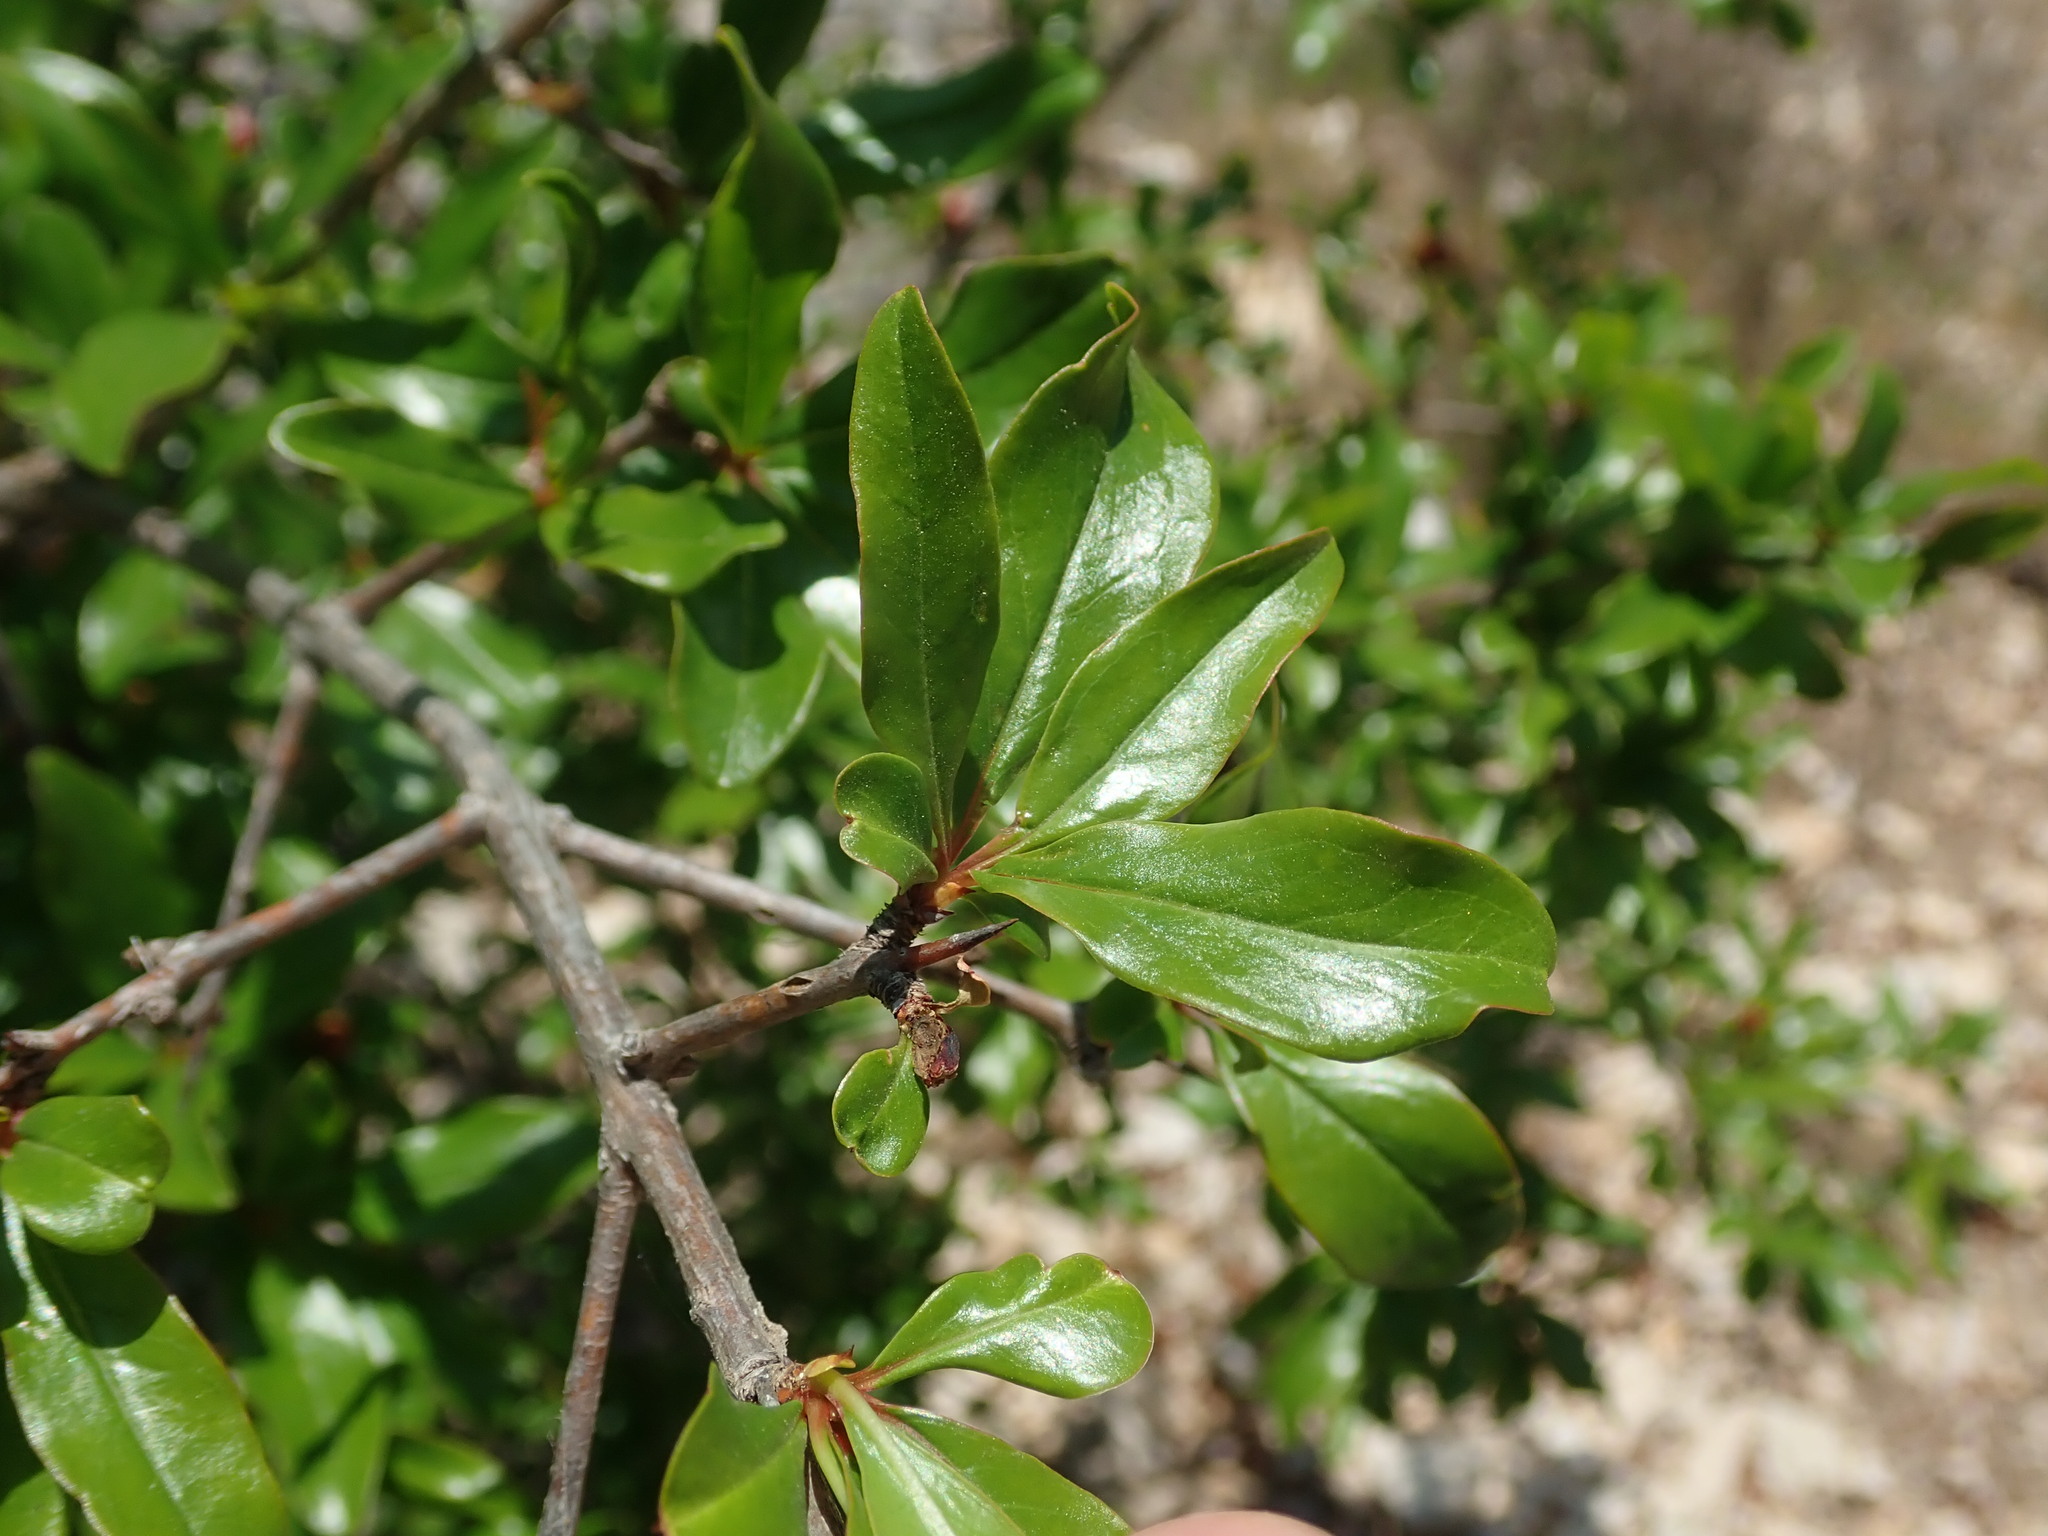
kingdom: Plantae
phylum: Tracheophyta
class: Magnoliopsida
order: Myrtales
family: Lythraceae
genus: Punica
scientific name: Punica granatum
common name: Pomegranate
